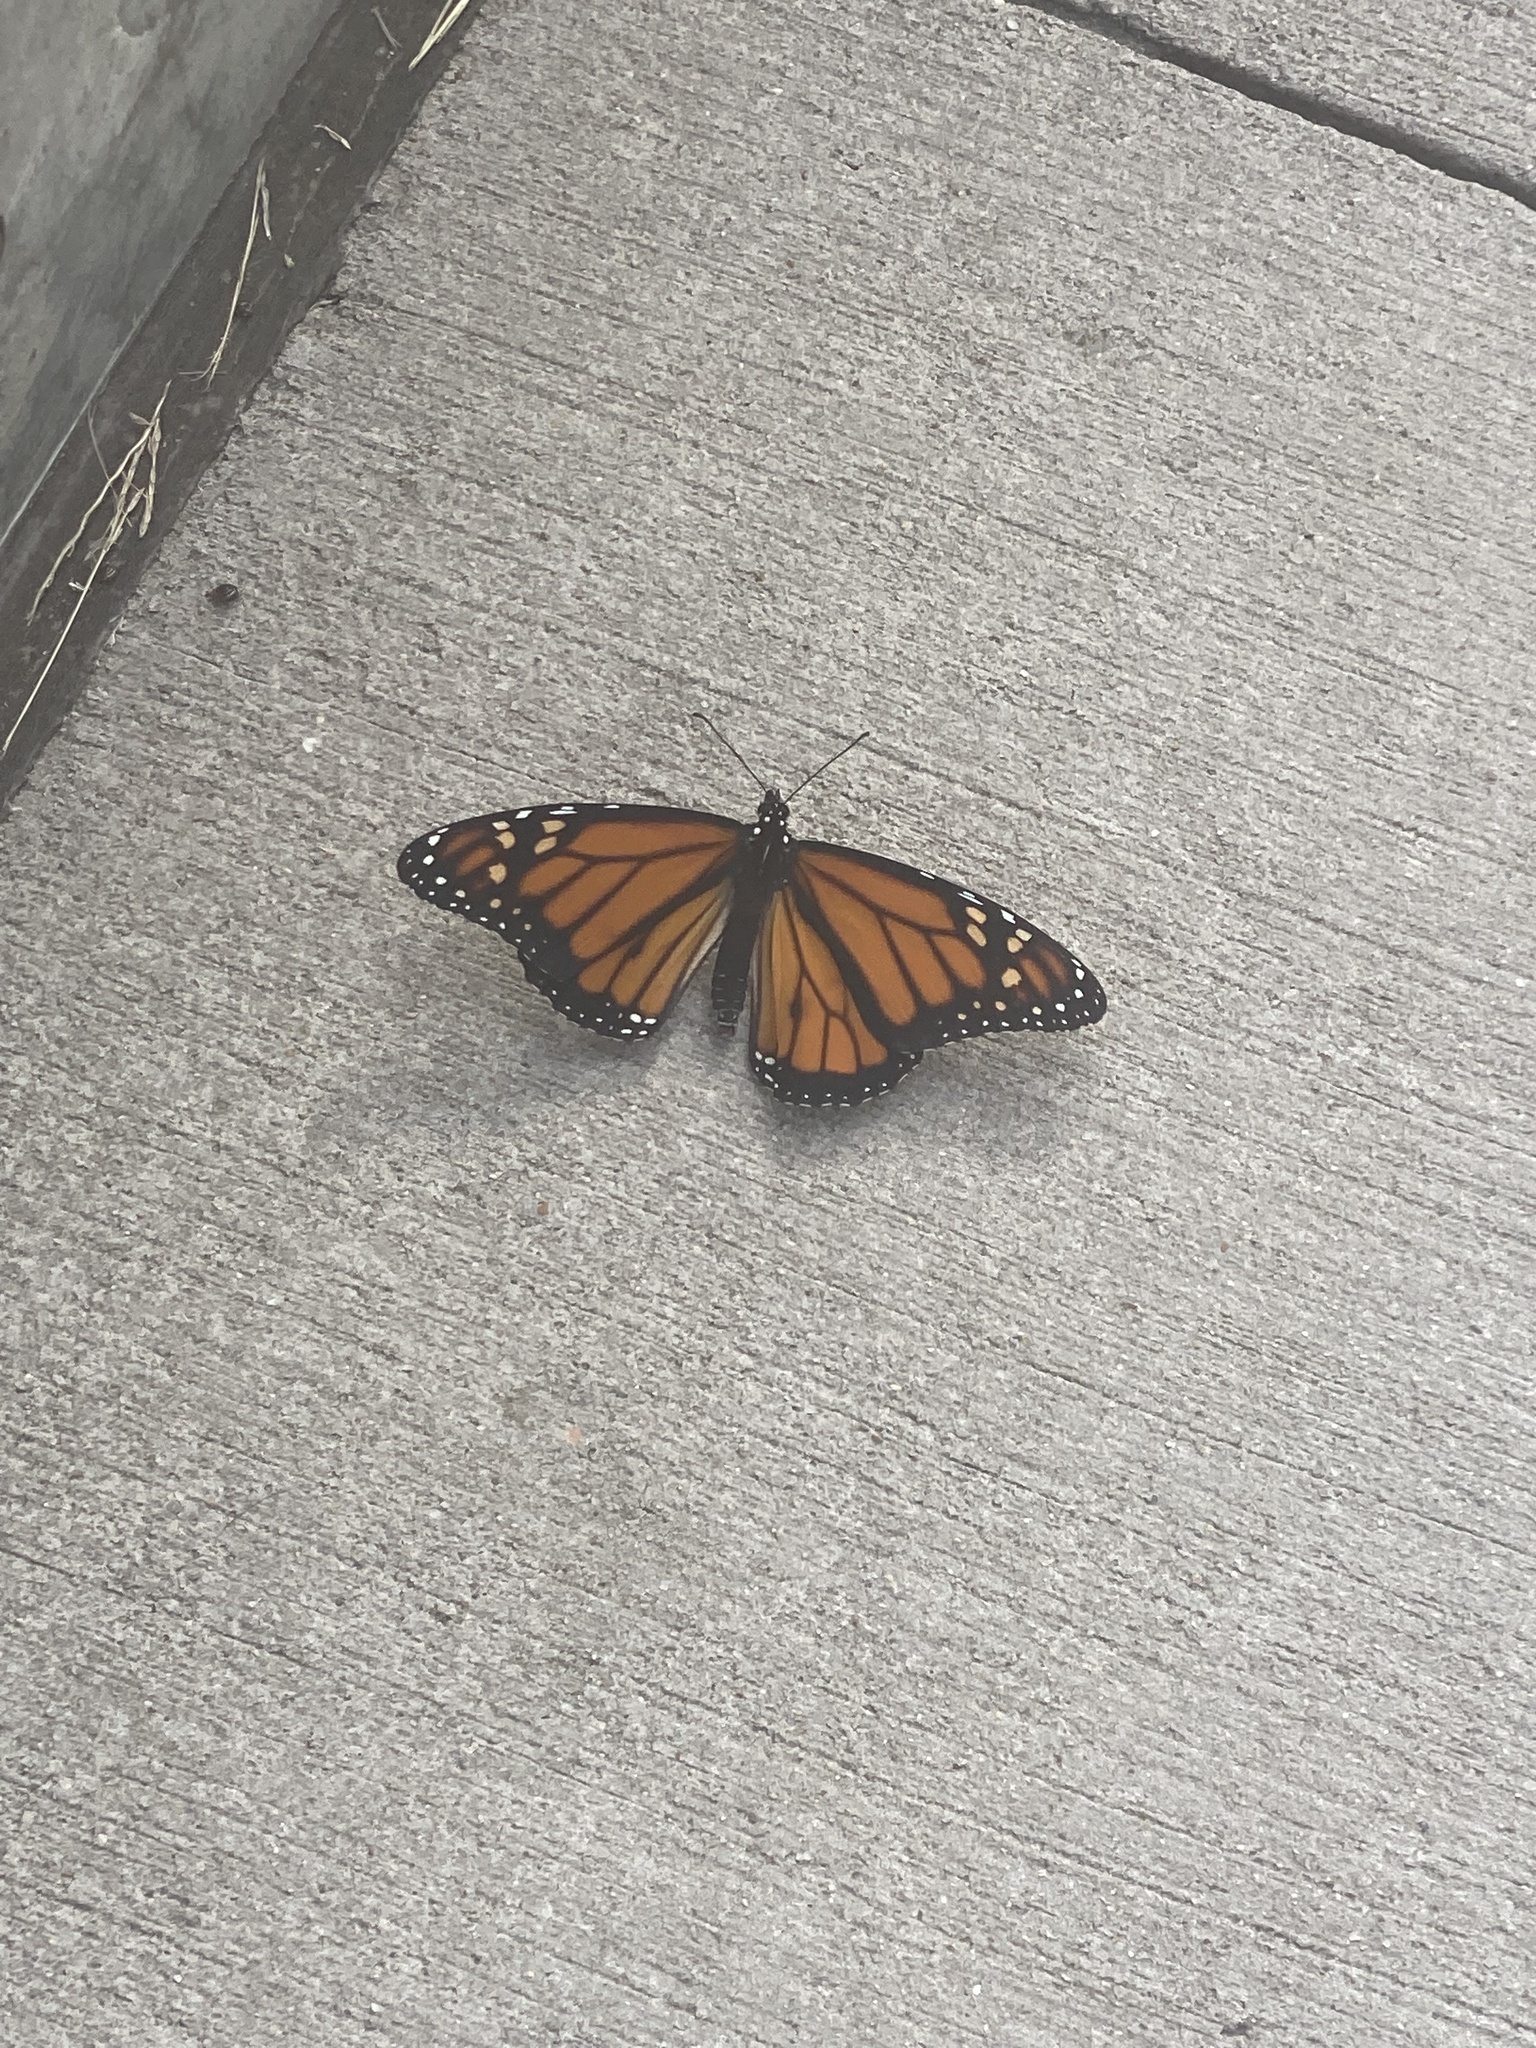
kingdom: Animalia
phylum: Arthropoda
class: Insecta
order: Lepidoptera
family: Nymphalidae
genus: Danaus
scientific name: Danaus plexippus
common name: Monarch
